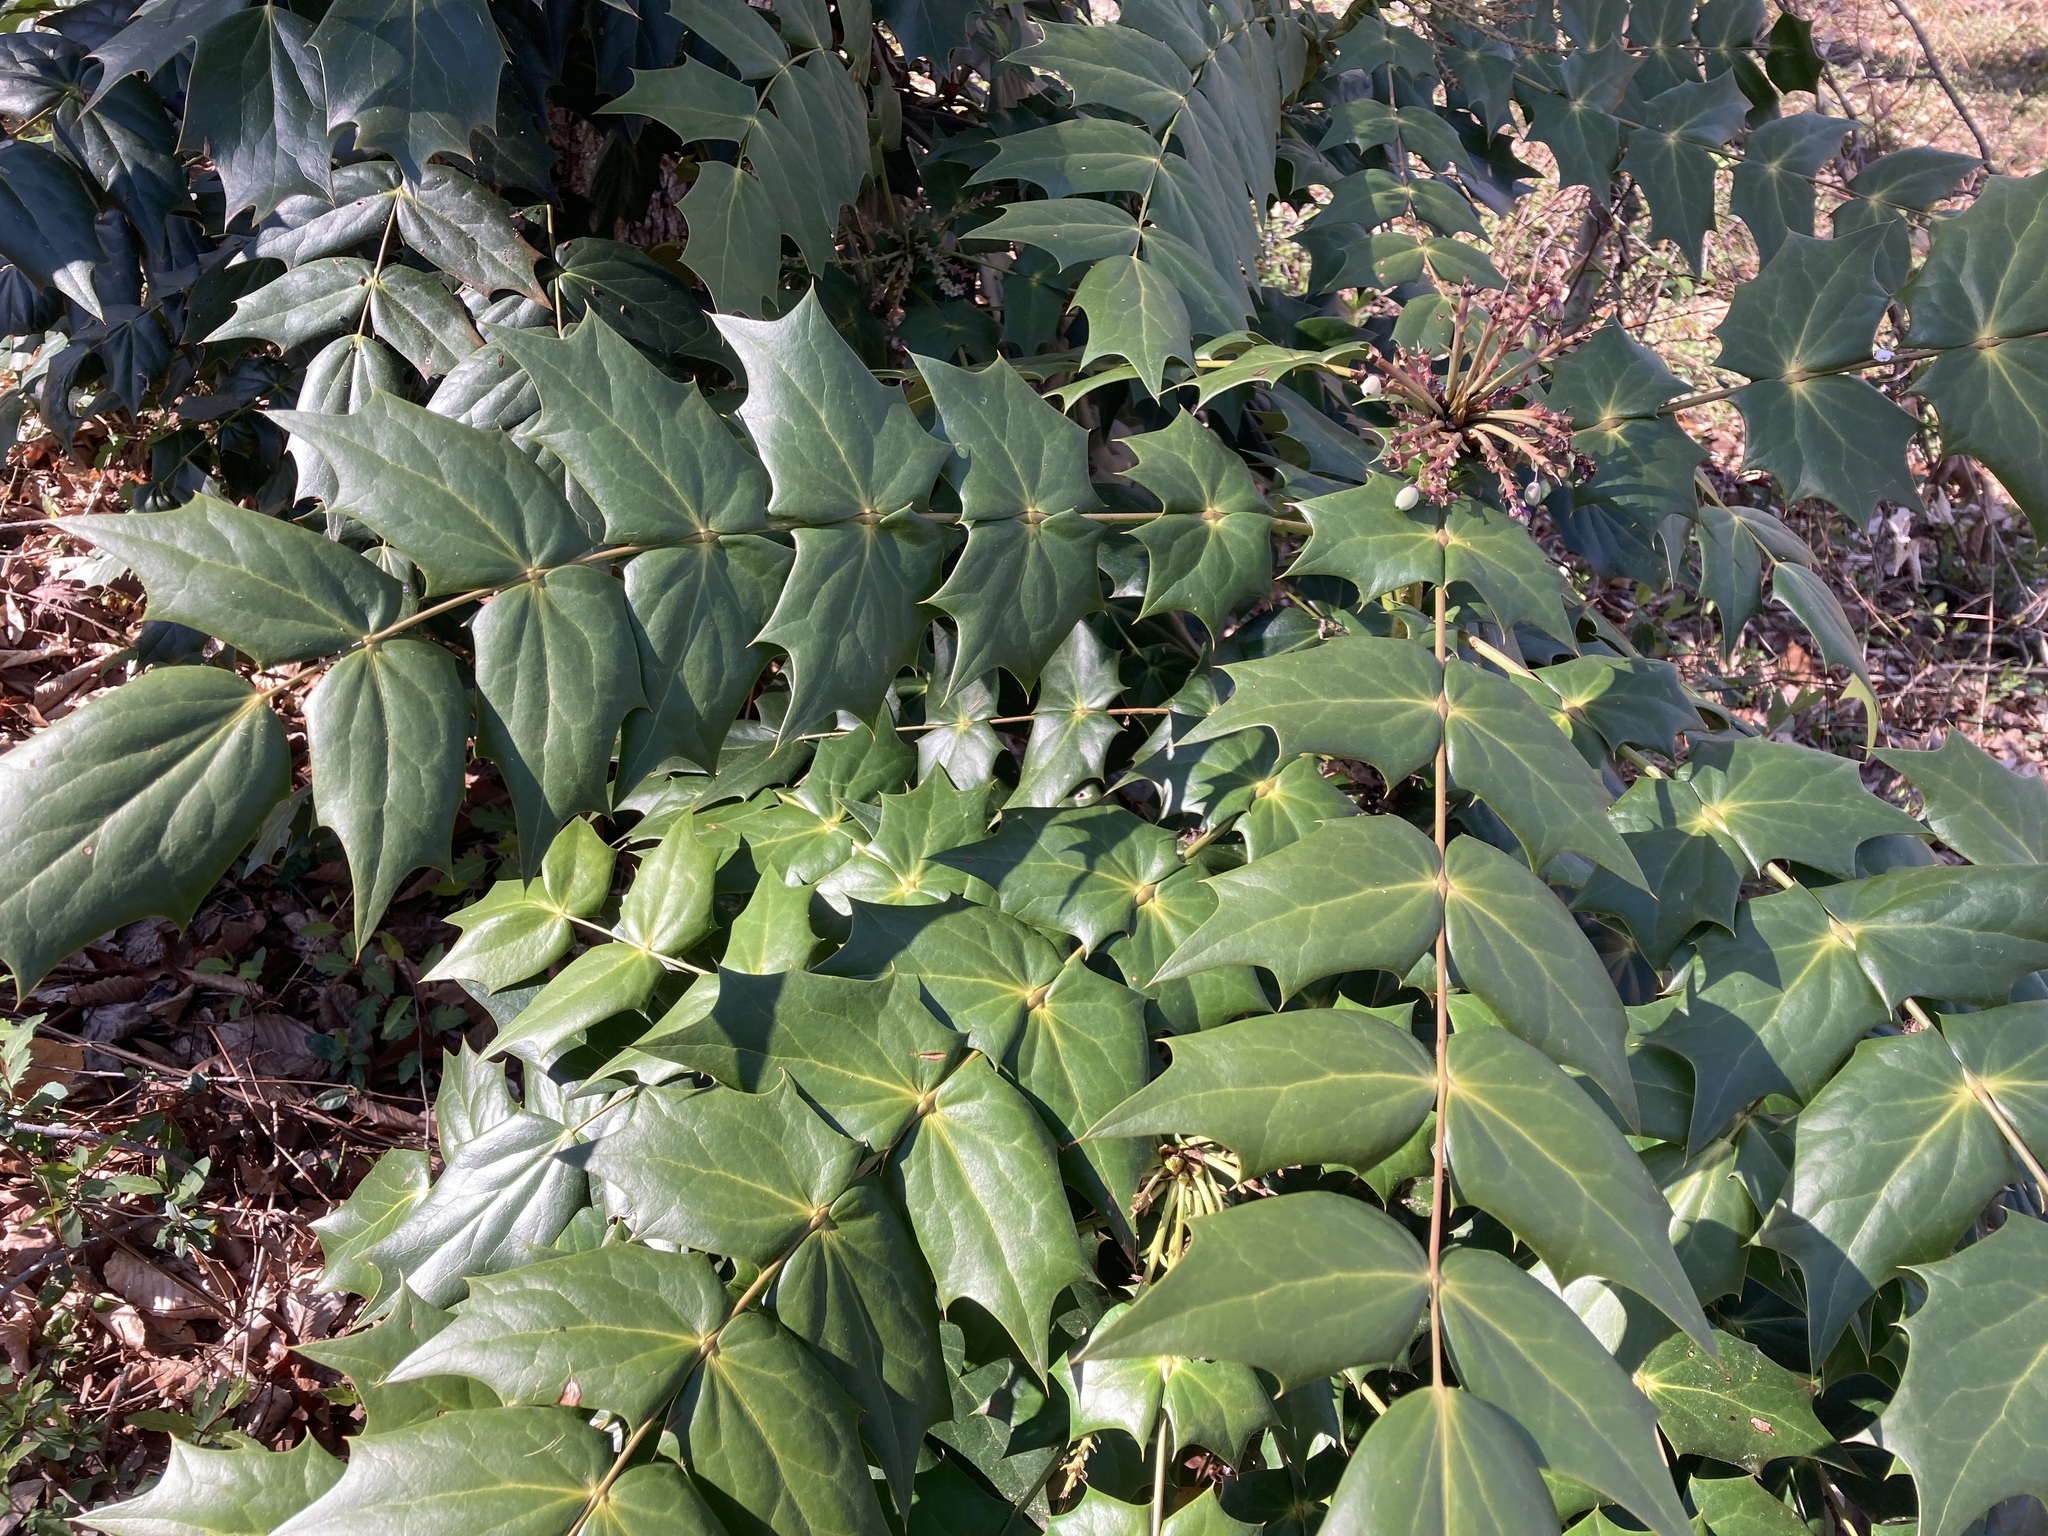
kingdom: Plantae
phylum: Tracheophyta
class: Magnoliopsida
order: Ranunculales
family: Berberidaceae
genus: Mahonia
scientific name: Mahonia bealei
